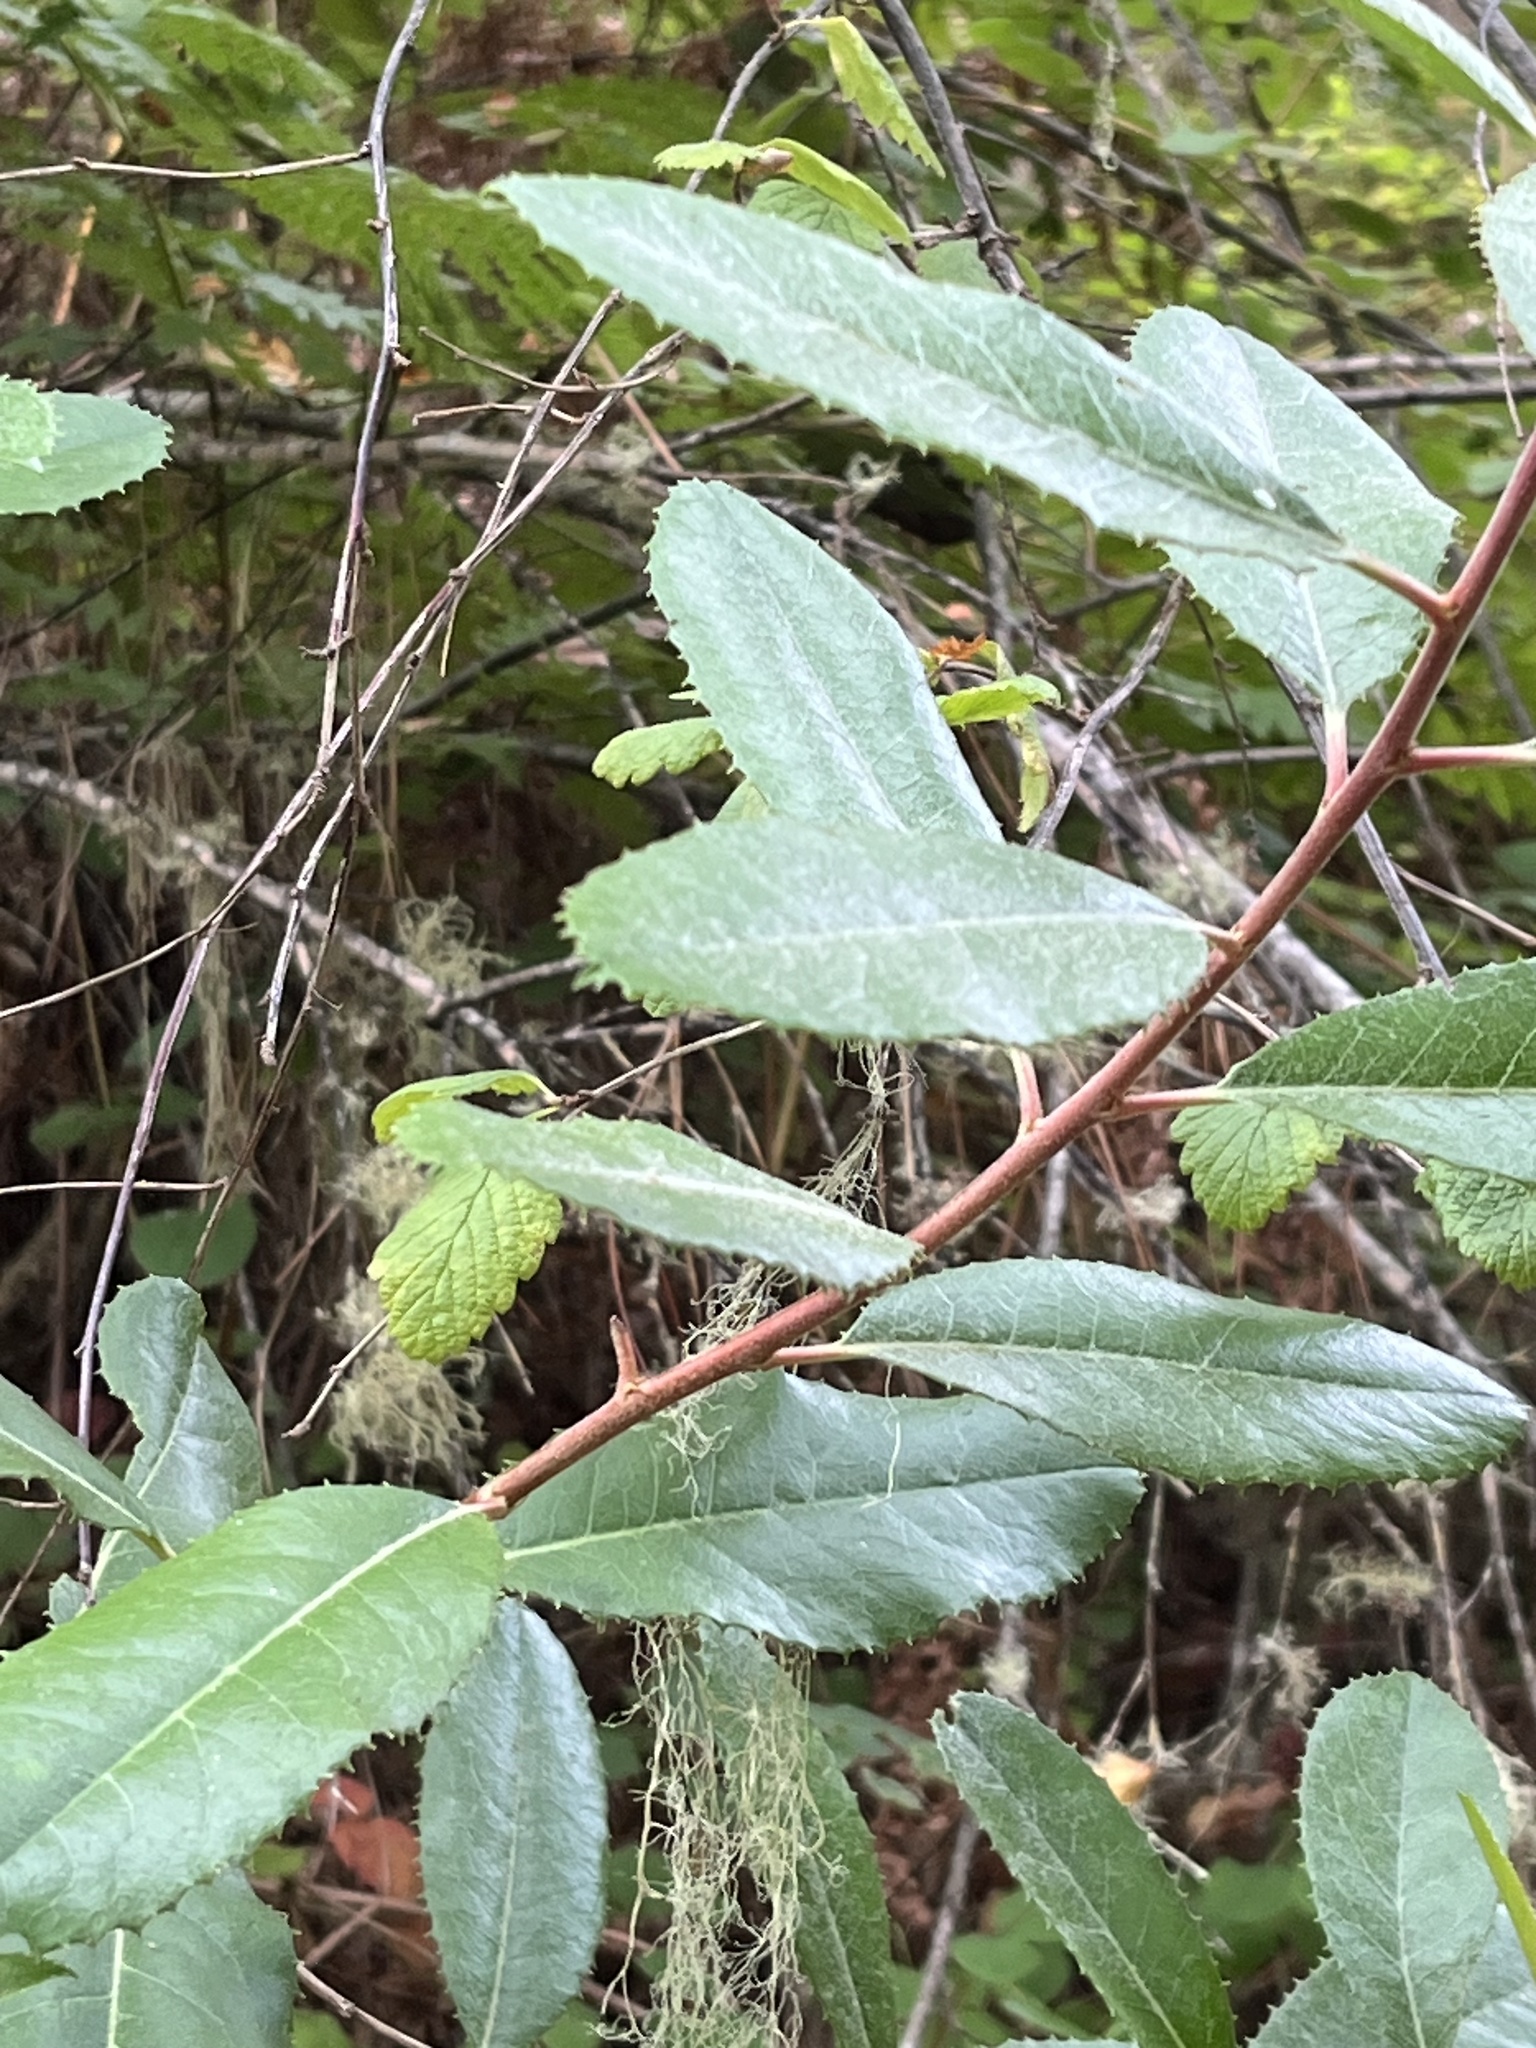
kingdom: Plantae
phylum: Tracheophyta
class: Magnoliopsida
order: Rosales
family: Rosaceae
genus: Heteromeles
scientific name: Heteromeles arbutifolia
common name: California-holly
